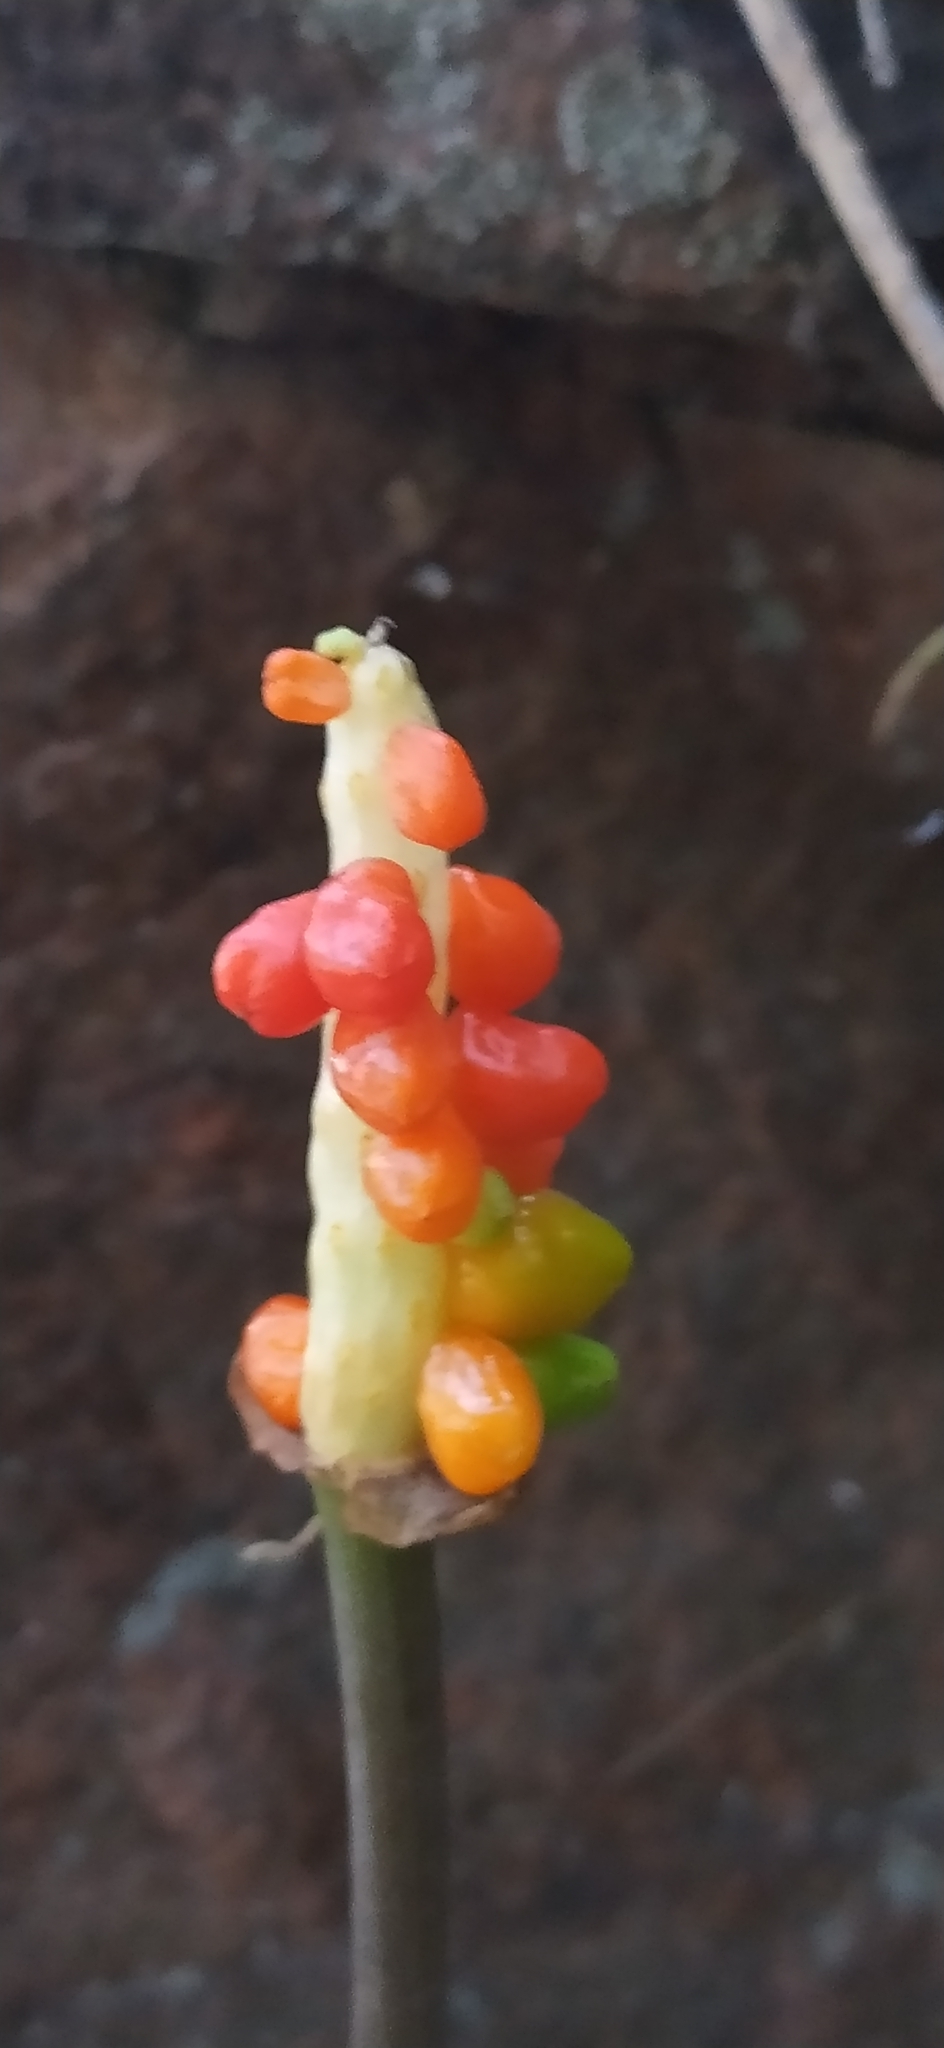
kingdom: Plantae
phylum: Tracheophyta
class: Liliopsida
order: Alismatales
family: Araceae
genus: Arum
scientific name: Arum korolkowii
